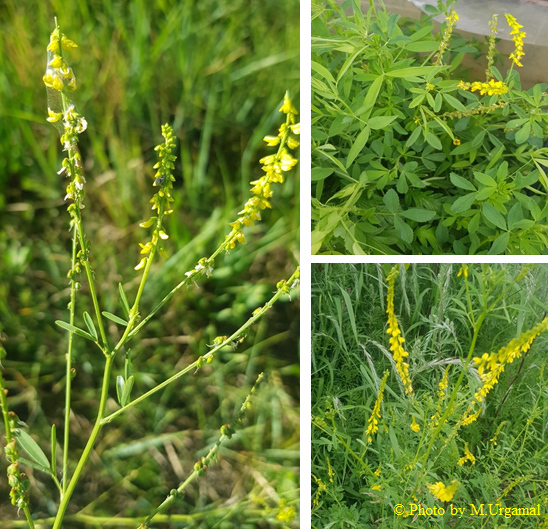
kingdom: Plantae
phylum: Tracheophyta
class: Magnoliopsida
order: Fabales
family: Fabaceae
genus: Melilotus
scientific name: Melilotus officinalis
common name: Sweetclover
